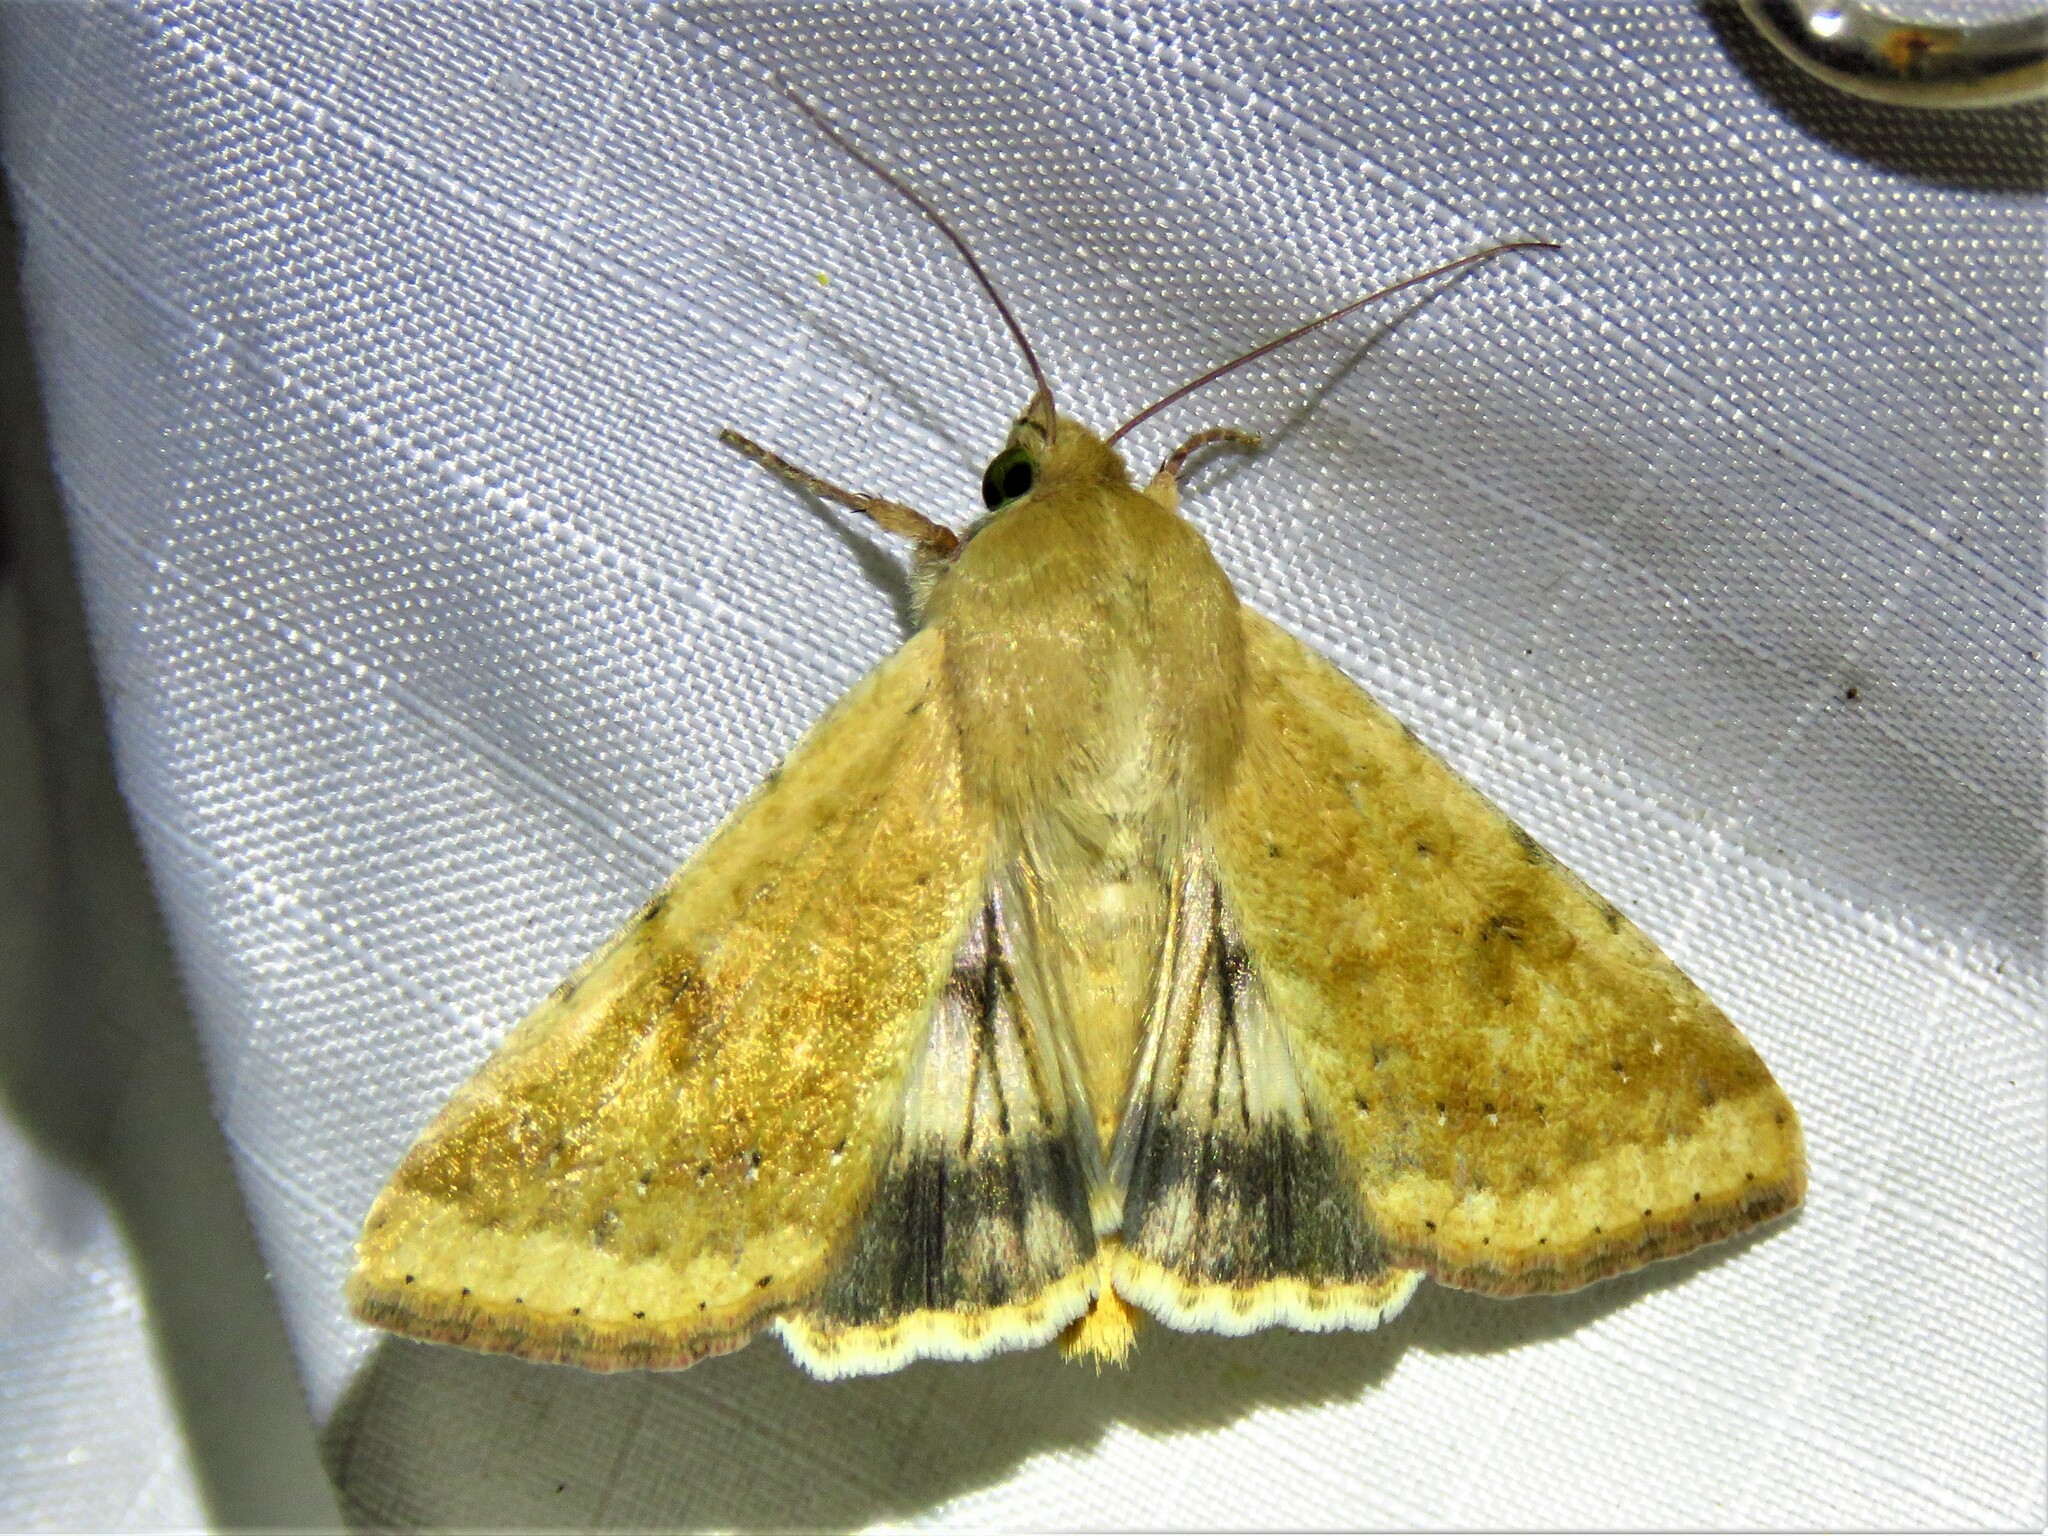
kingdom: Animalia
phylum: Arthropoda
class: Insecta
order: Lepidoptera
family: Noctuidae
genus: Helicoverpa
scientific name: Helicoverpa zea
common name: Bollworm
